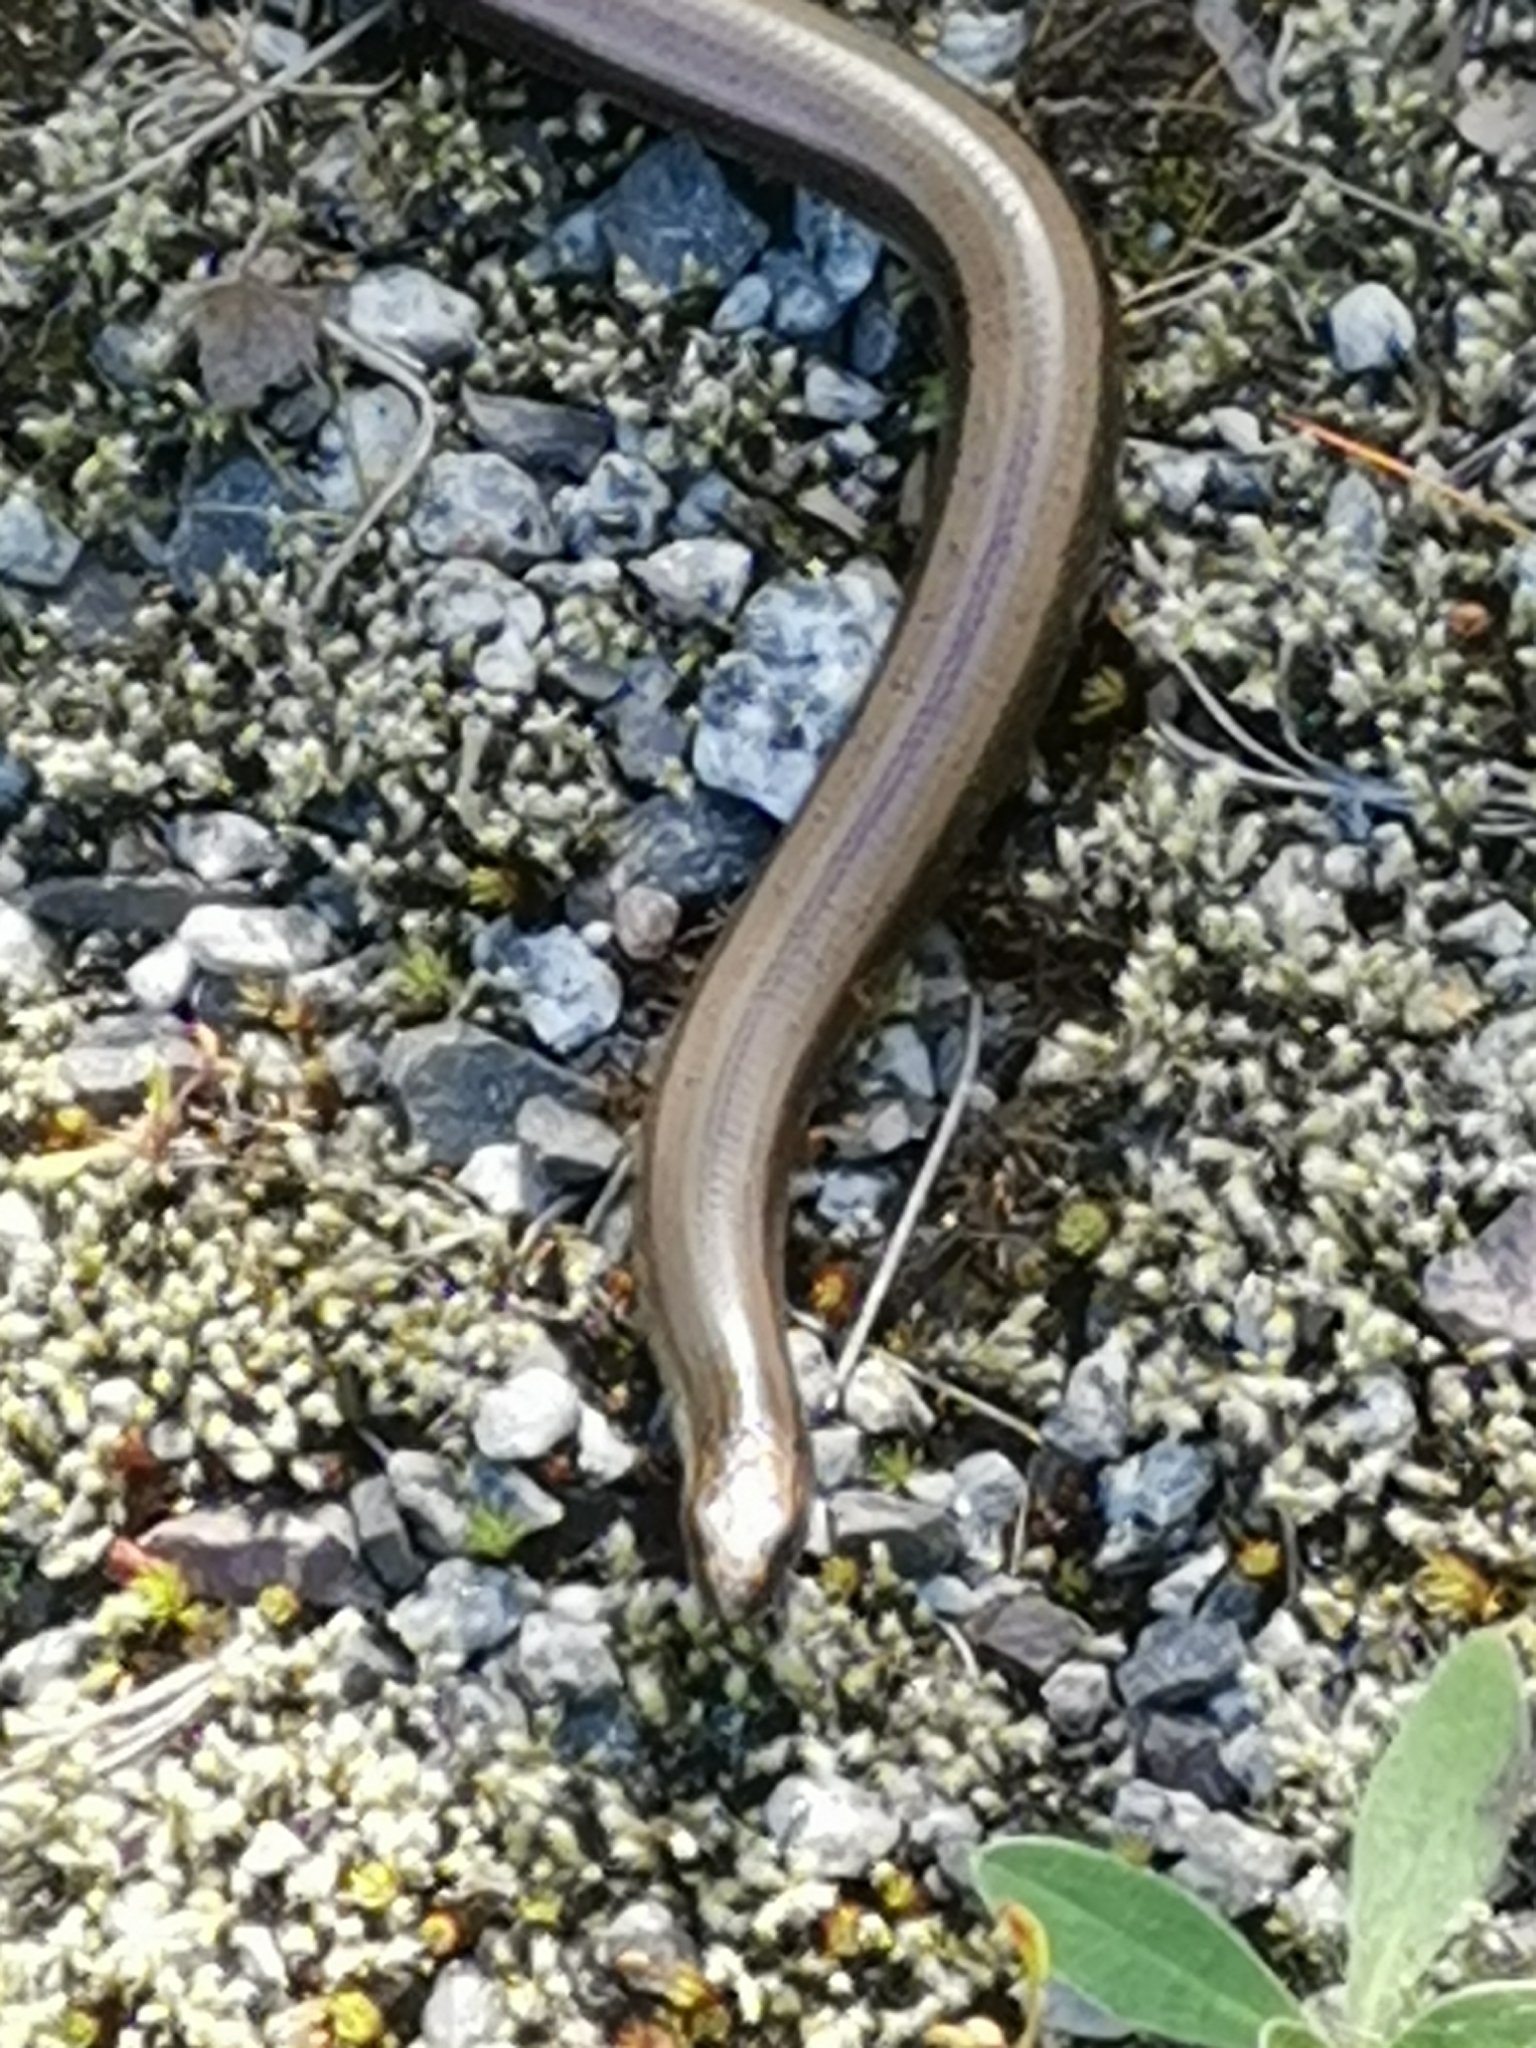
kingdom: Animalia
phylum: Chordata
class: Squamata
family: Anguidae
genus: Anguis
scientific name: Anguis colchica
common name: Slow worm
